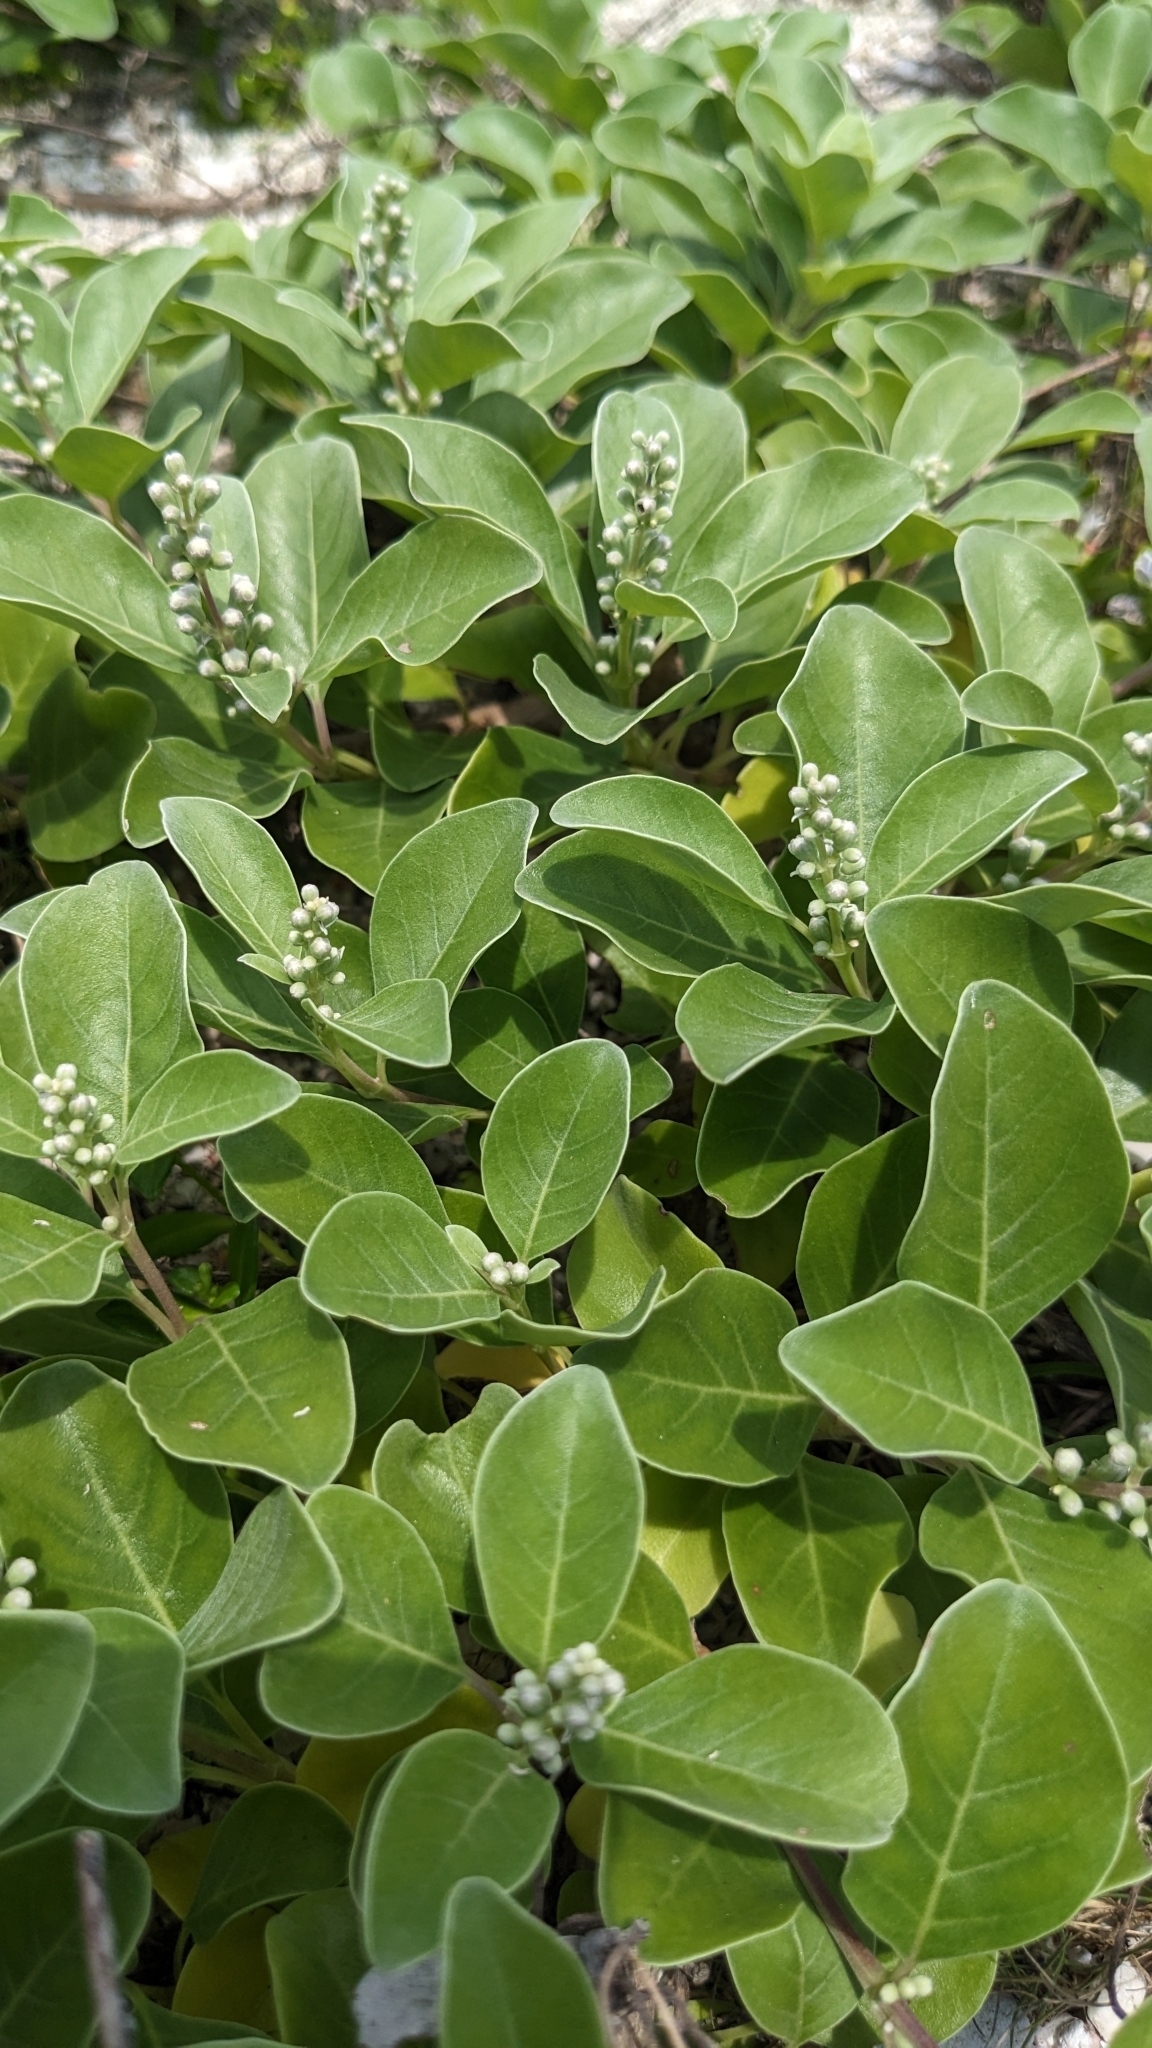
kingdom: Plantae
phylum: Tracheophyta
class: Magnoliopsida
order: Lamiales
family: Lamiaceae
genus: Vitex
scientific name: Vitex rotundifolia
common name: Beach vitex
